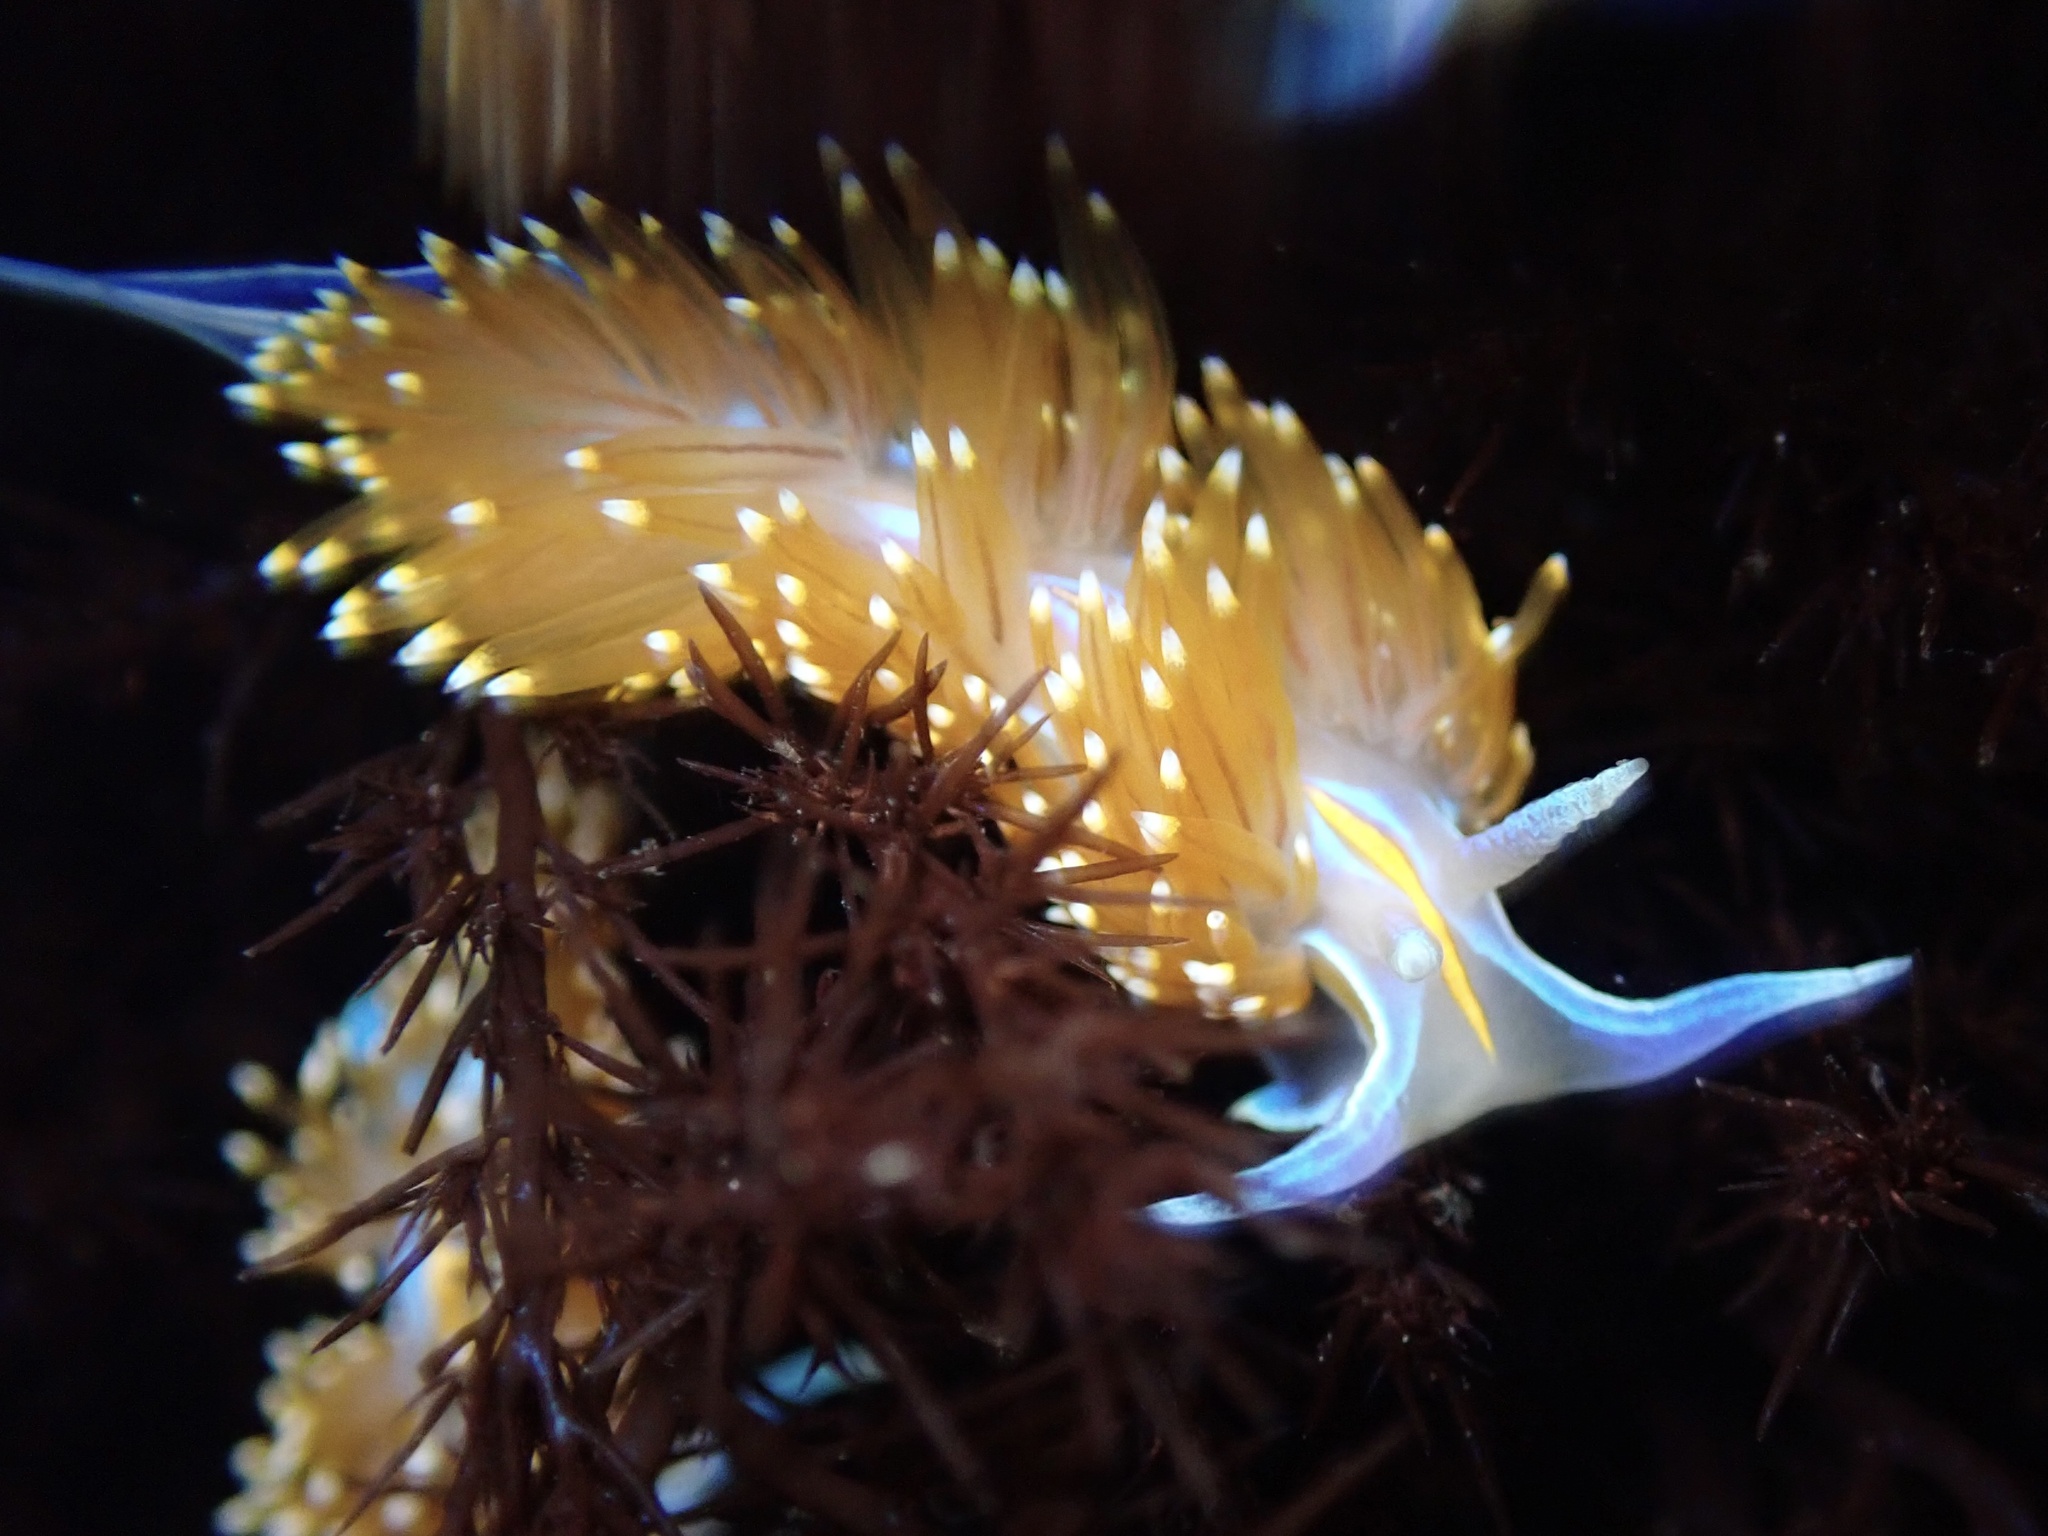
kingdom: Animalia
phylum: Mollusca
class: Gastropoda
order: Nudibranchia
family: Myrrhinidae
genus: Hermissenda
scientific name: Hermissenda opalescens
